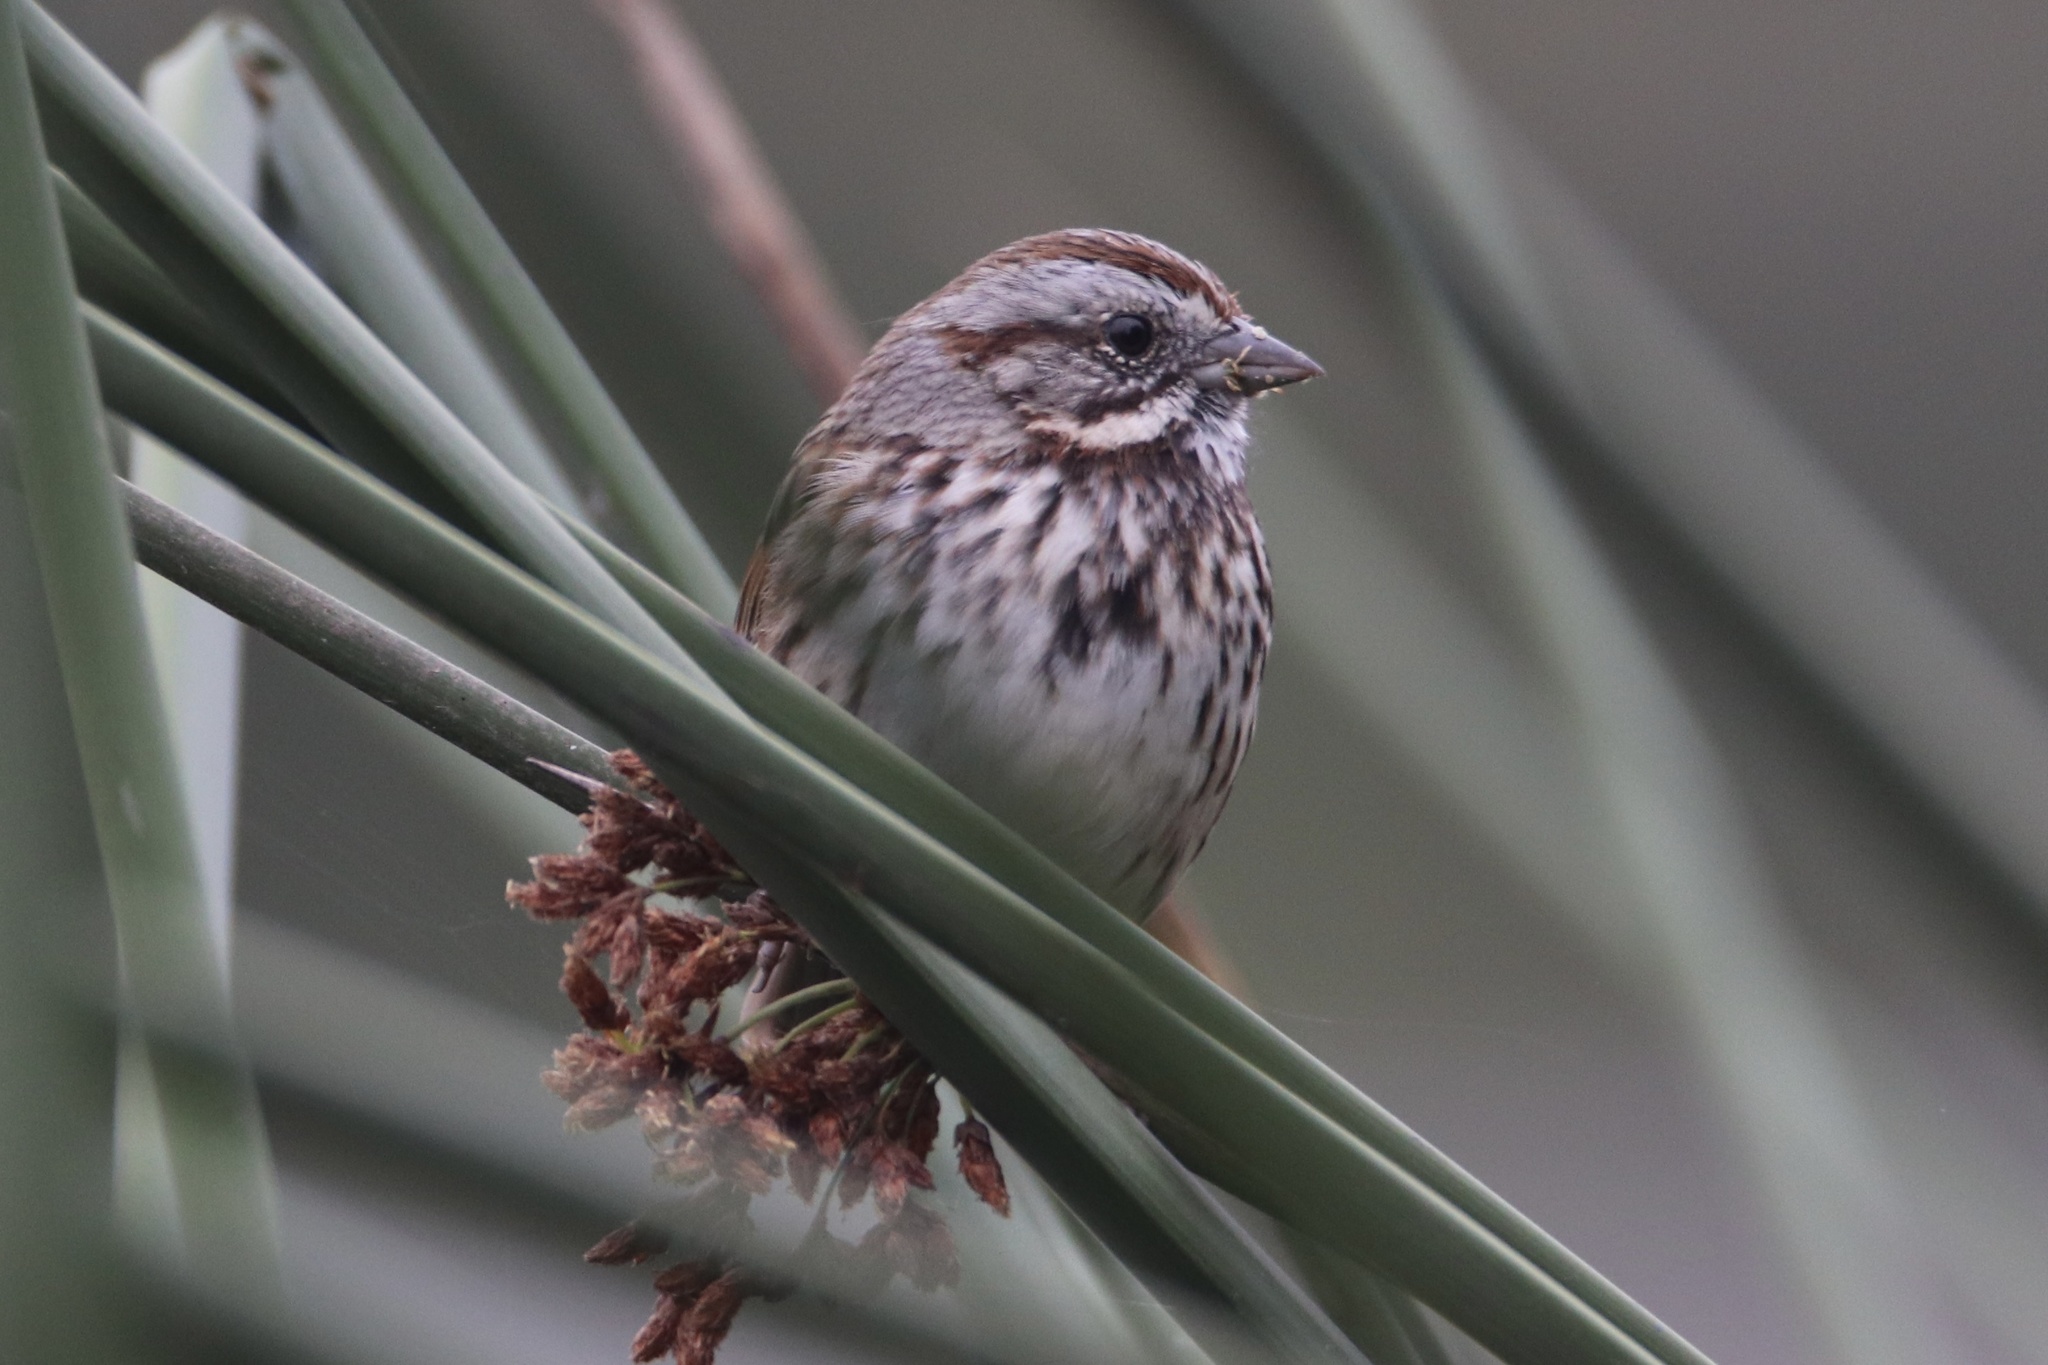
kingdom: Animalia
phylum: Chordata
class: Aves
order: Passeriformes
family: Passerellidae
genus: Melospiza
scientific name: Melospiza melodia
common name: Song sparrow
